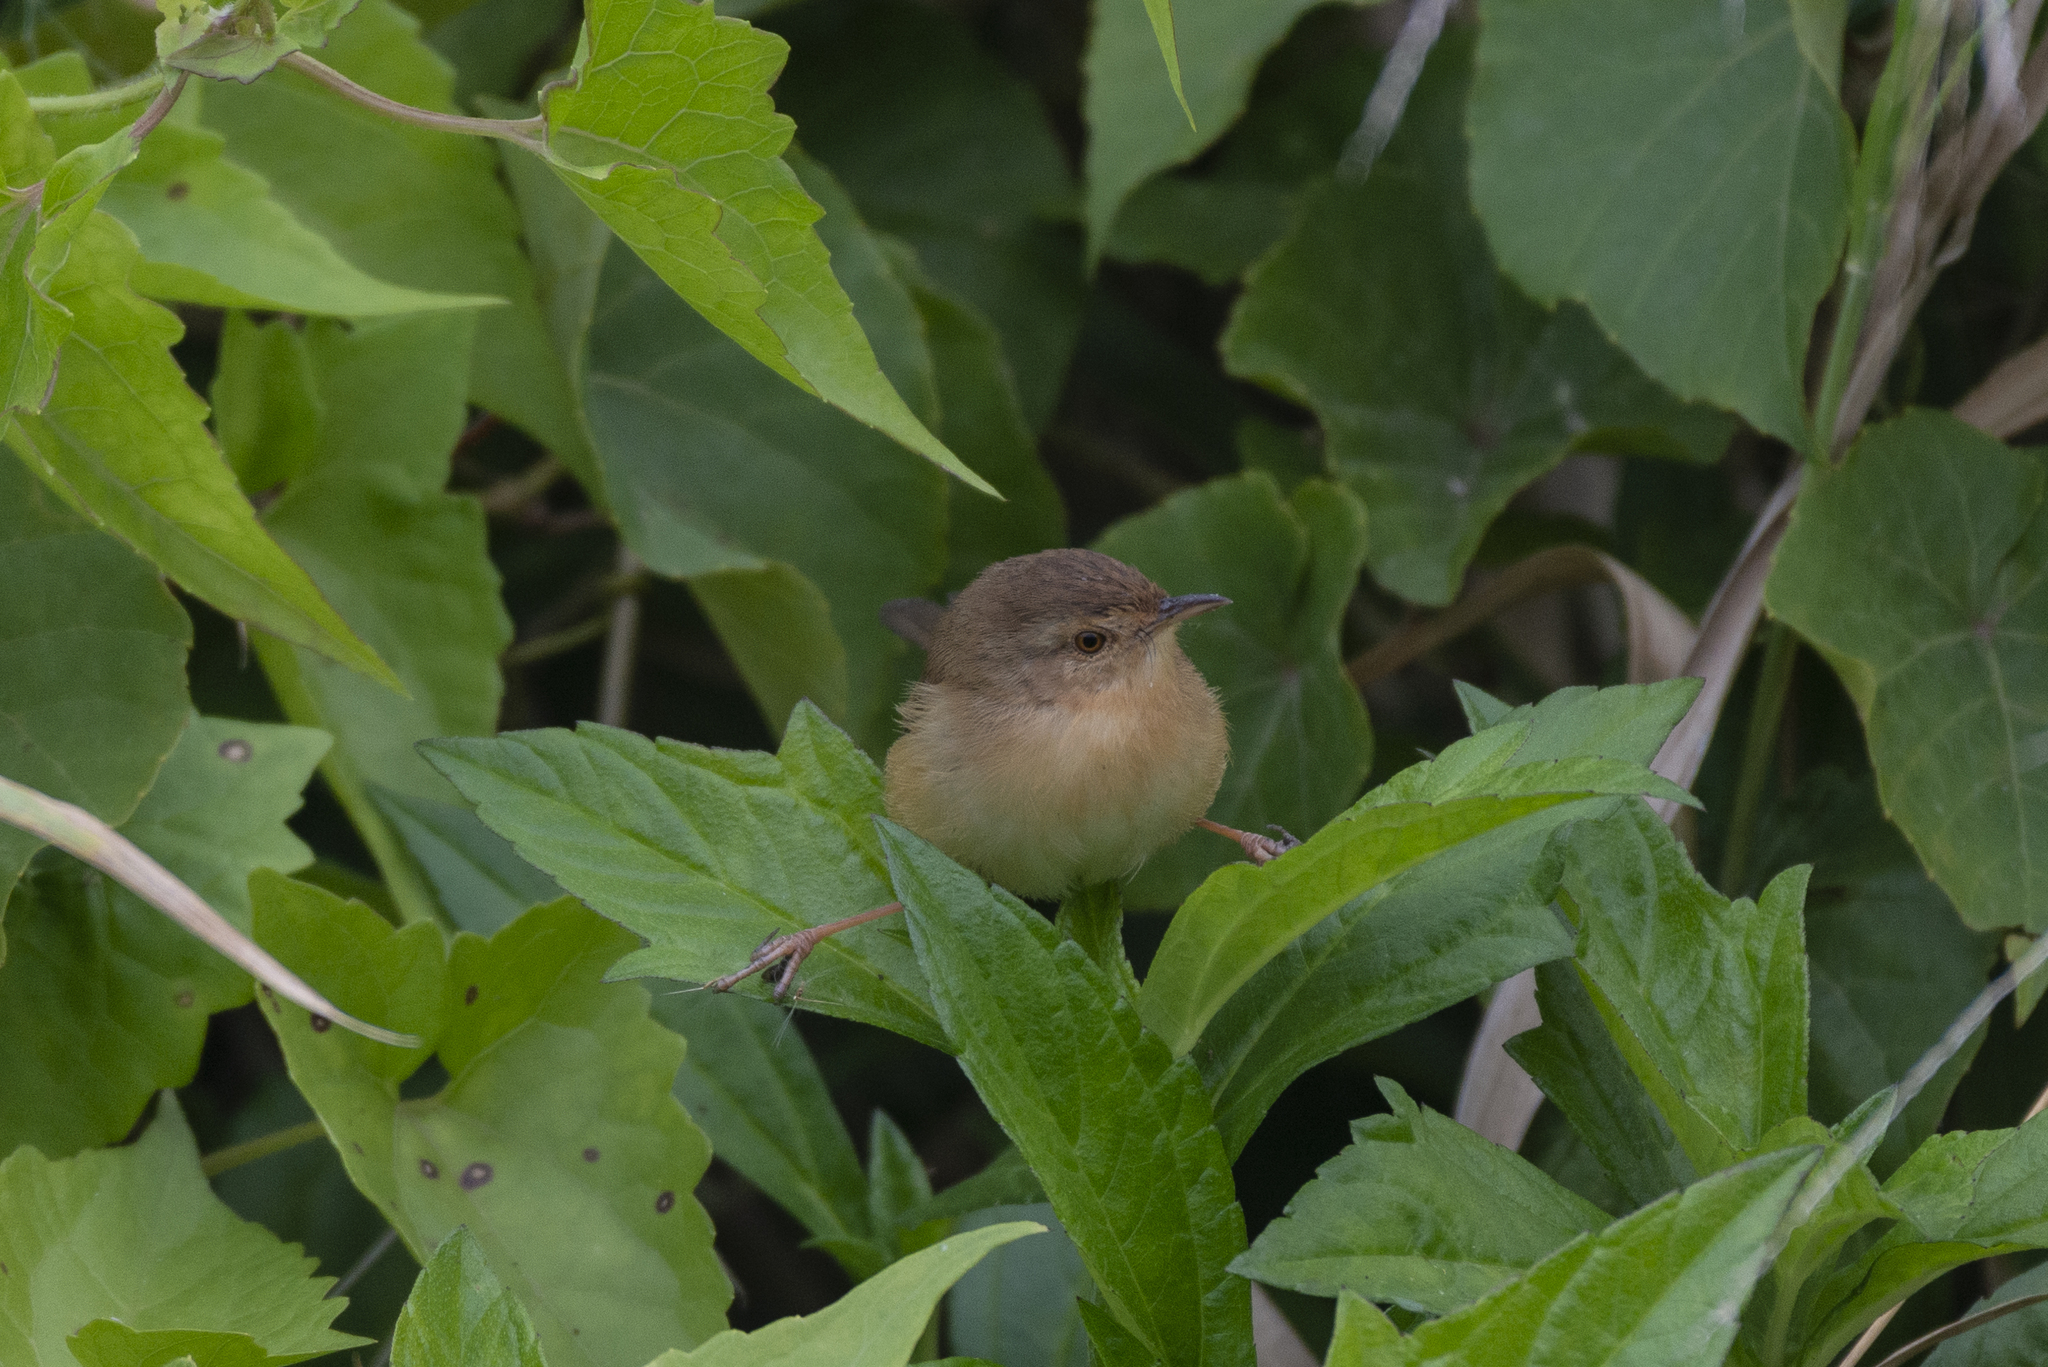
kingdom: Animalia
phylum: Chordata
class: Aves
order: Passeriformes
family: Cisticolidae
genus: Prinia
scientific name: Prinia inornata
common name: Plain prinia
